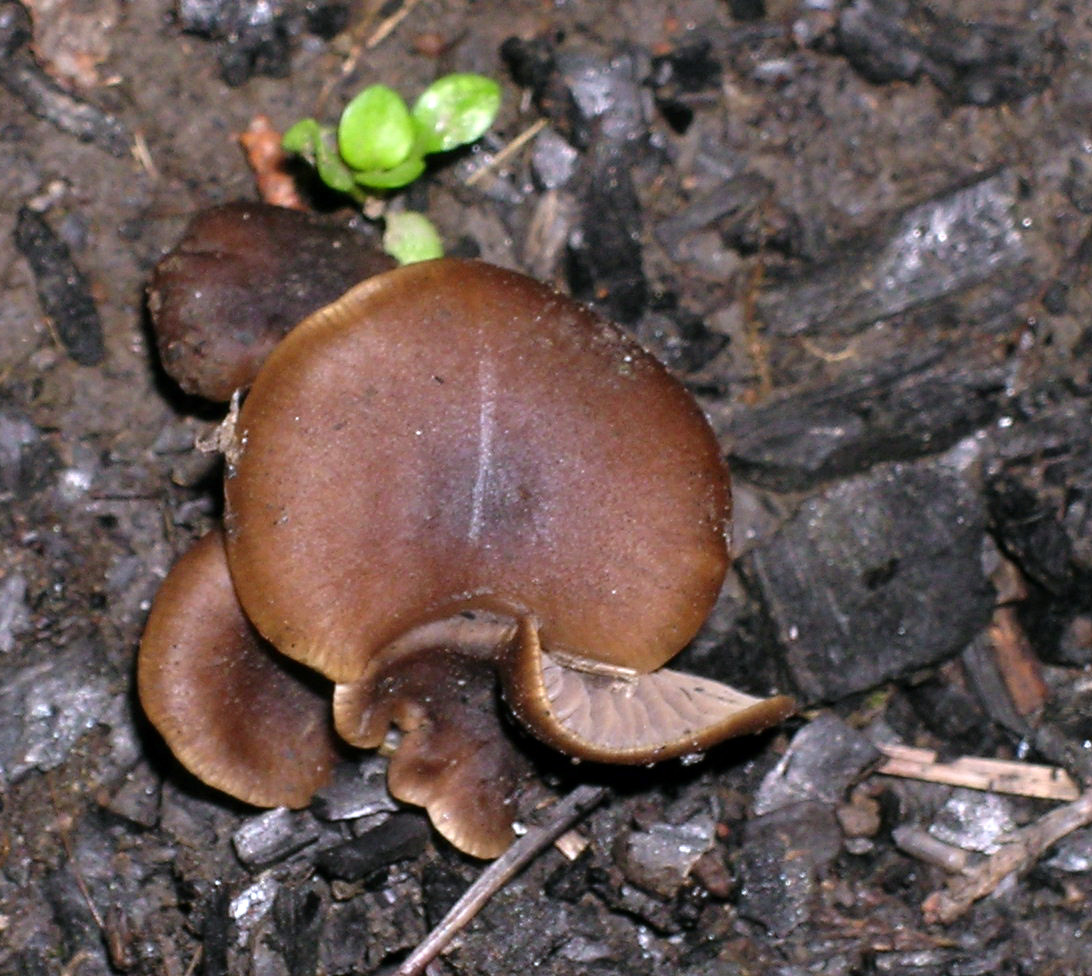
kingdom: Fungi
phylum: Basidiomycota
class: Agaricomycetes
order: Agaricales
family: Lyophyllaceae
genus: Tephrocybe
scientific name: Tephrocybe atrata
